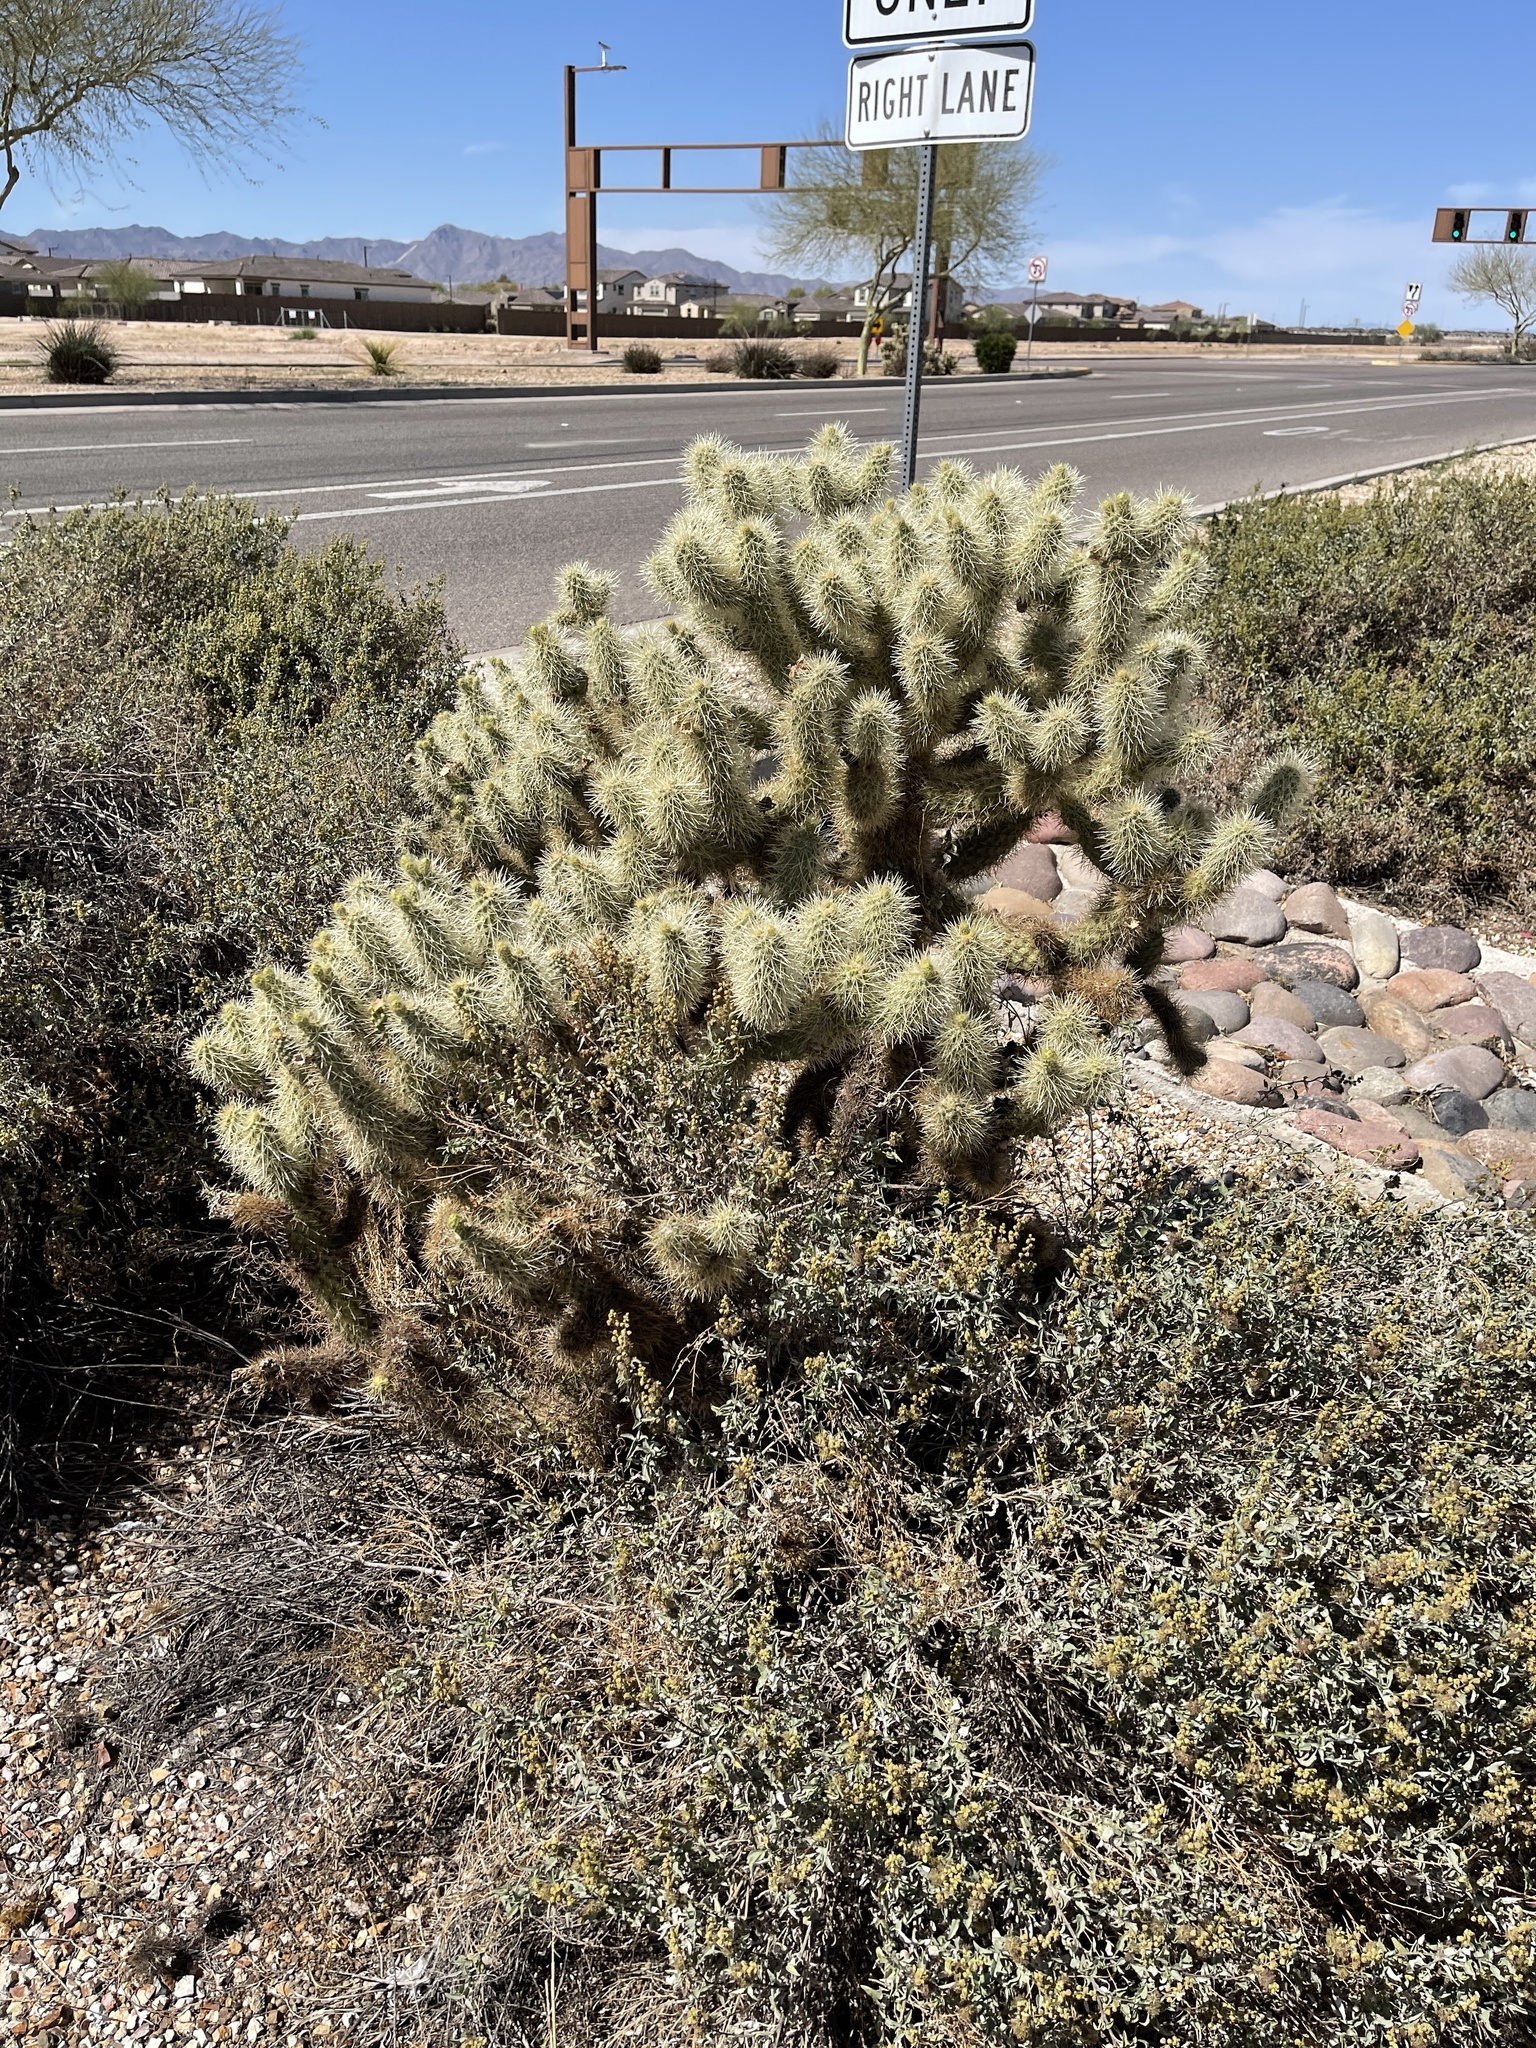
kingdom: Plantae
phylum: Tracheophyta
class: Magnoliopsida
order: Caryophyllales
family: Cactaceae
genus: Cylindropuntia
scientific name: Cylindropuntia fosbergii
